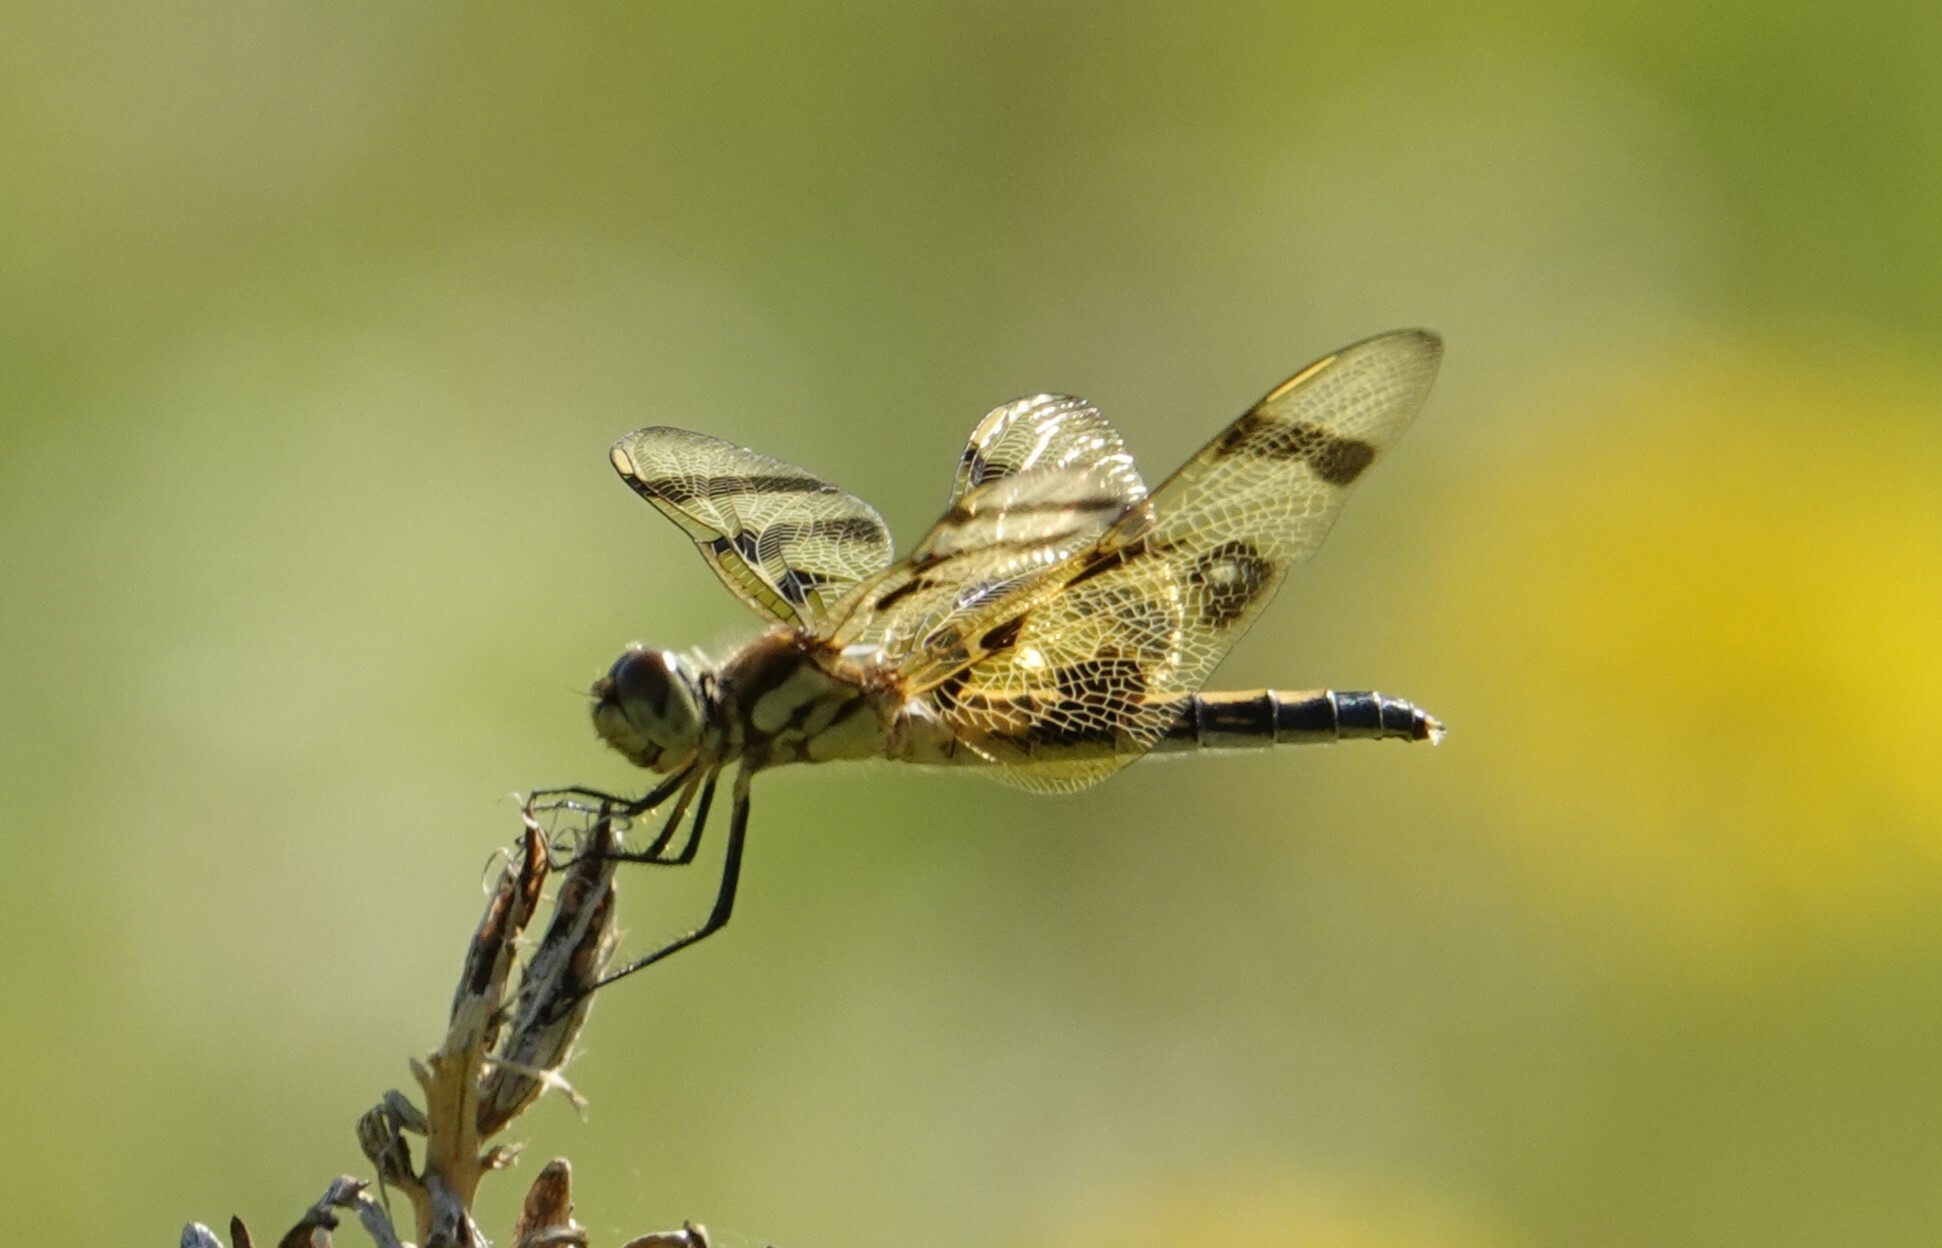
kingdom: Animalia
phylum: Arthropoda
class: Insecta
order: Odonata
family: Libellulidae
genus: Celithemis
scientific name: Celithemis eponina
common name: Halloween pennant
